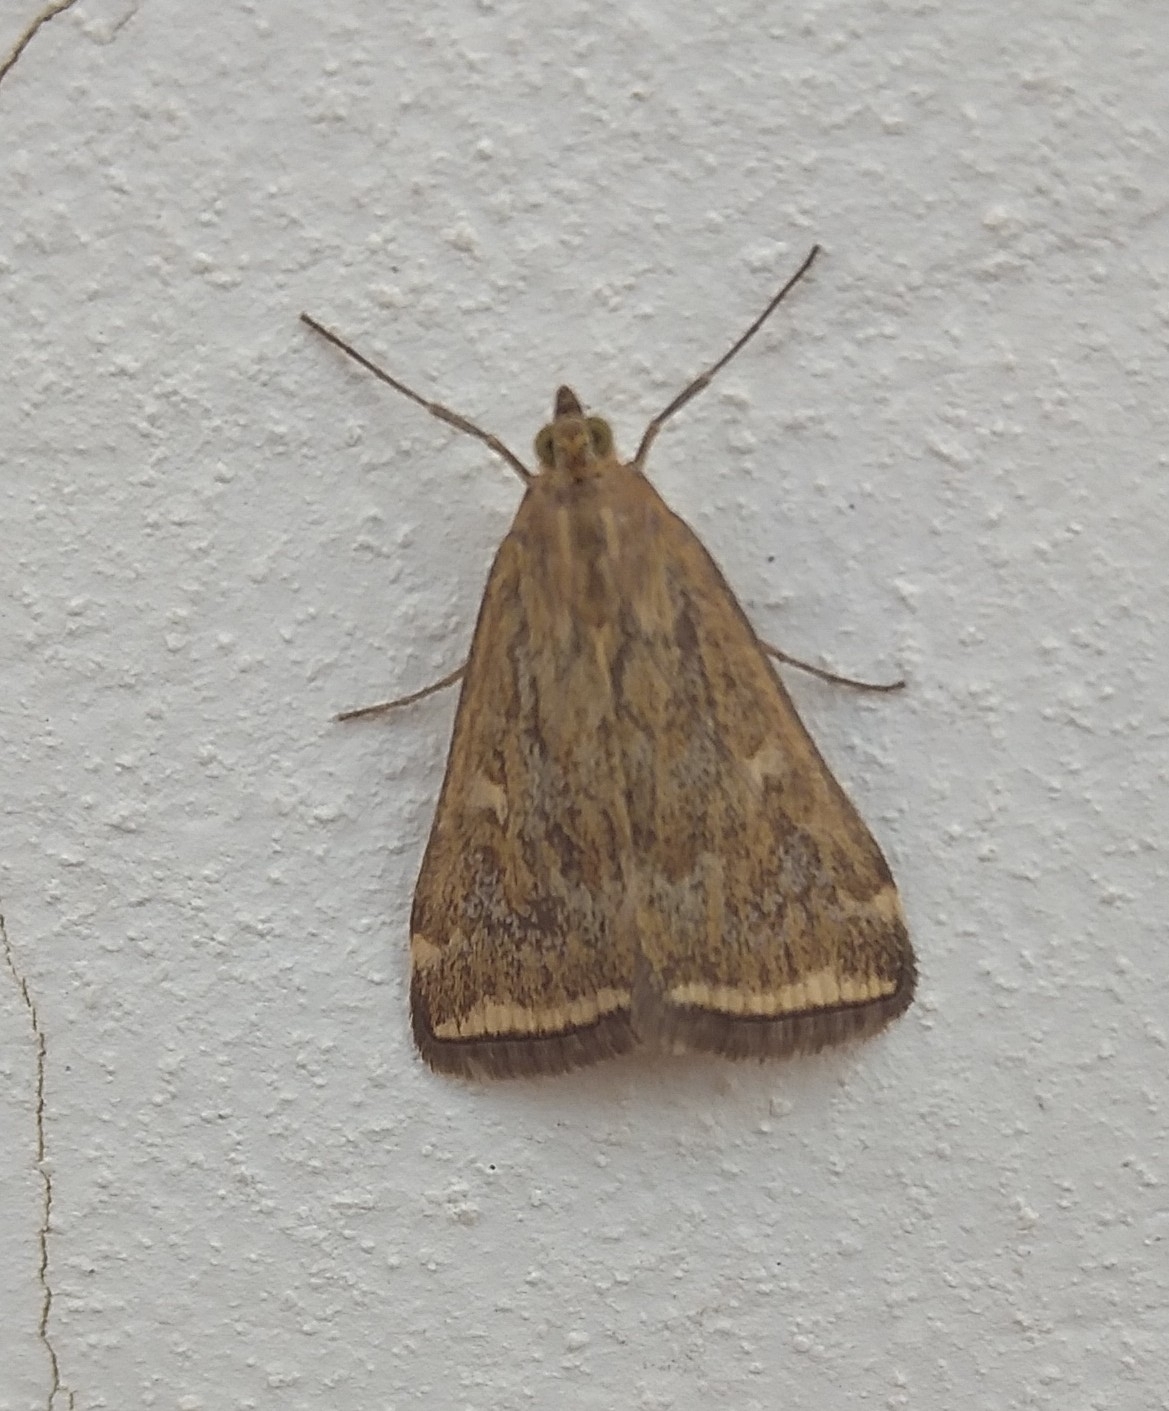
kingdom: Animalia
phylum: Arthropoda
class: Insecta
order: Lepidoptera
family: Crambidae
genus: Loxostege
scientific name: Loxostege sticticalis
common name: Crambid moth
